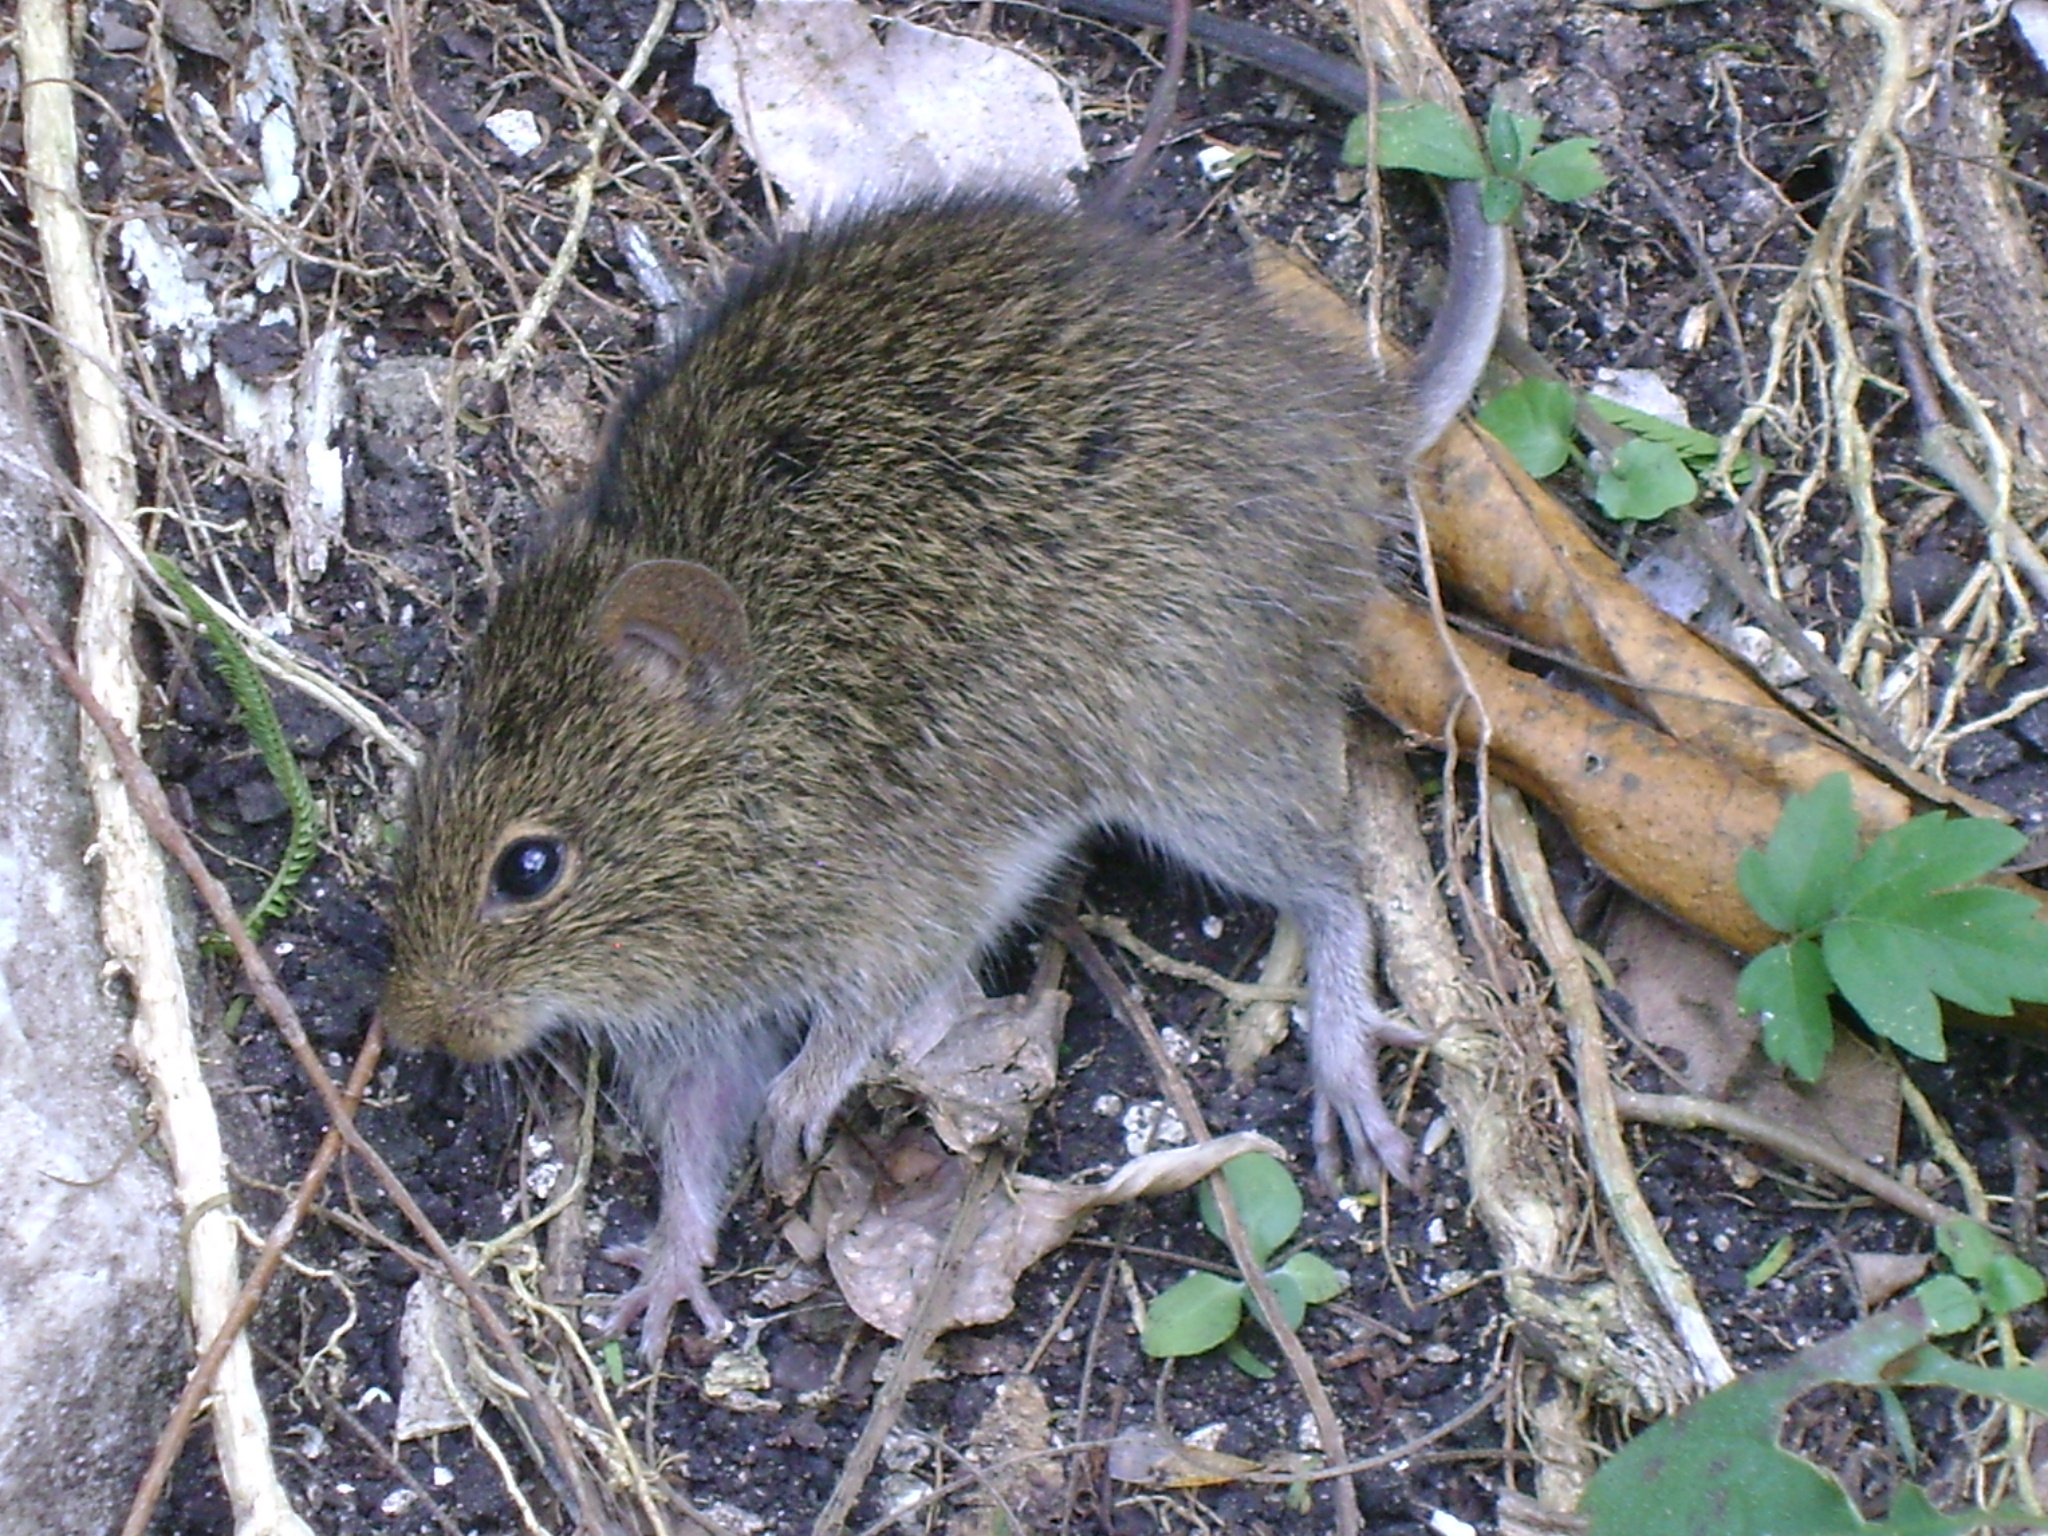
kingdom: Animalia
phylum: Chordata
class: Mammalia
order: Rodentia
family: Cricetidae
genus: Sigmodon
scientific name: Sigmodon toltecus
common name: Toltec cotton rat
